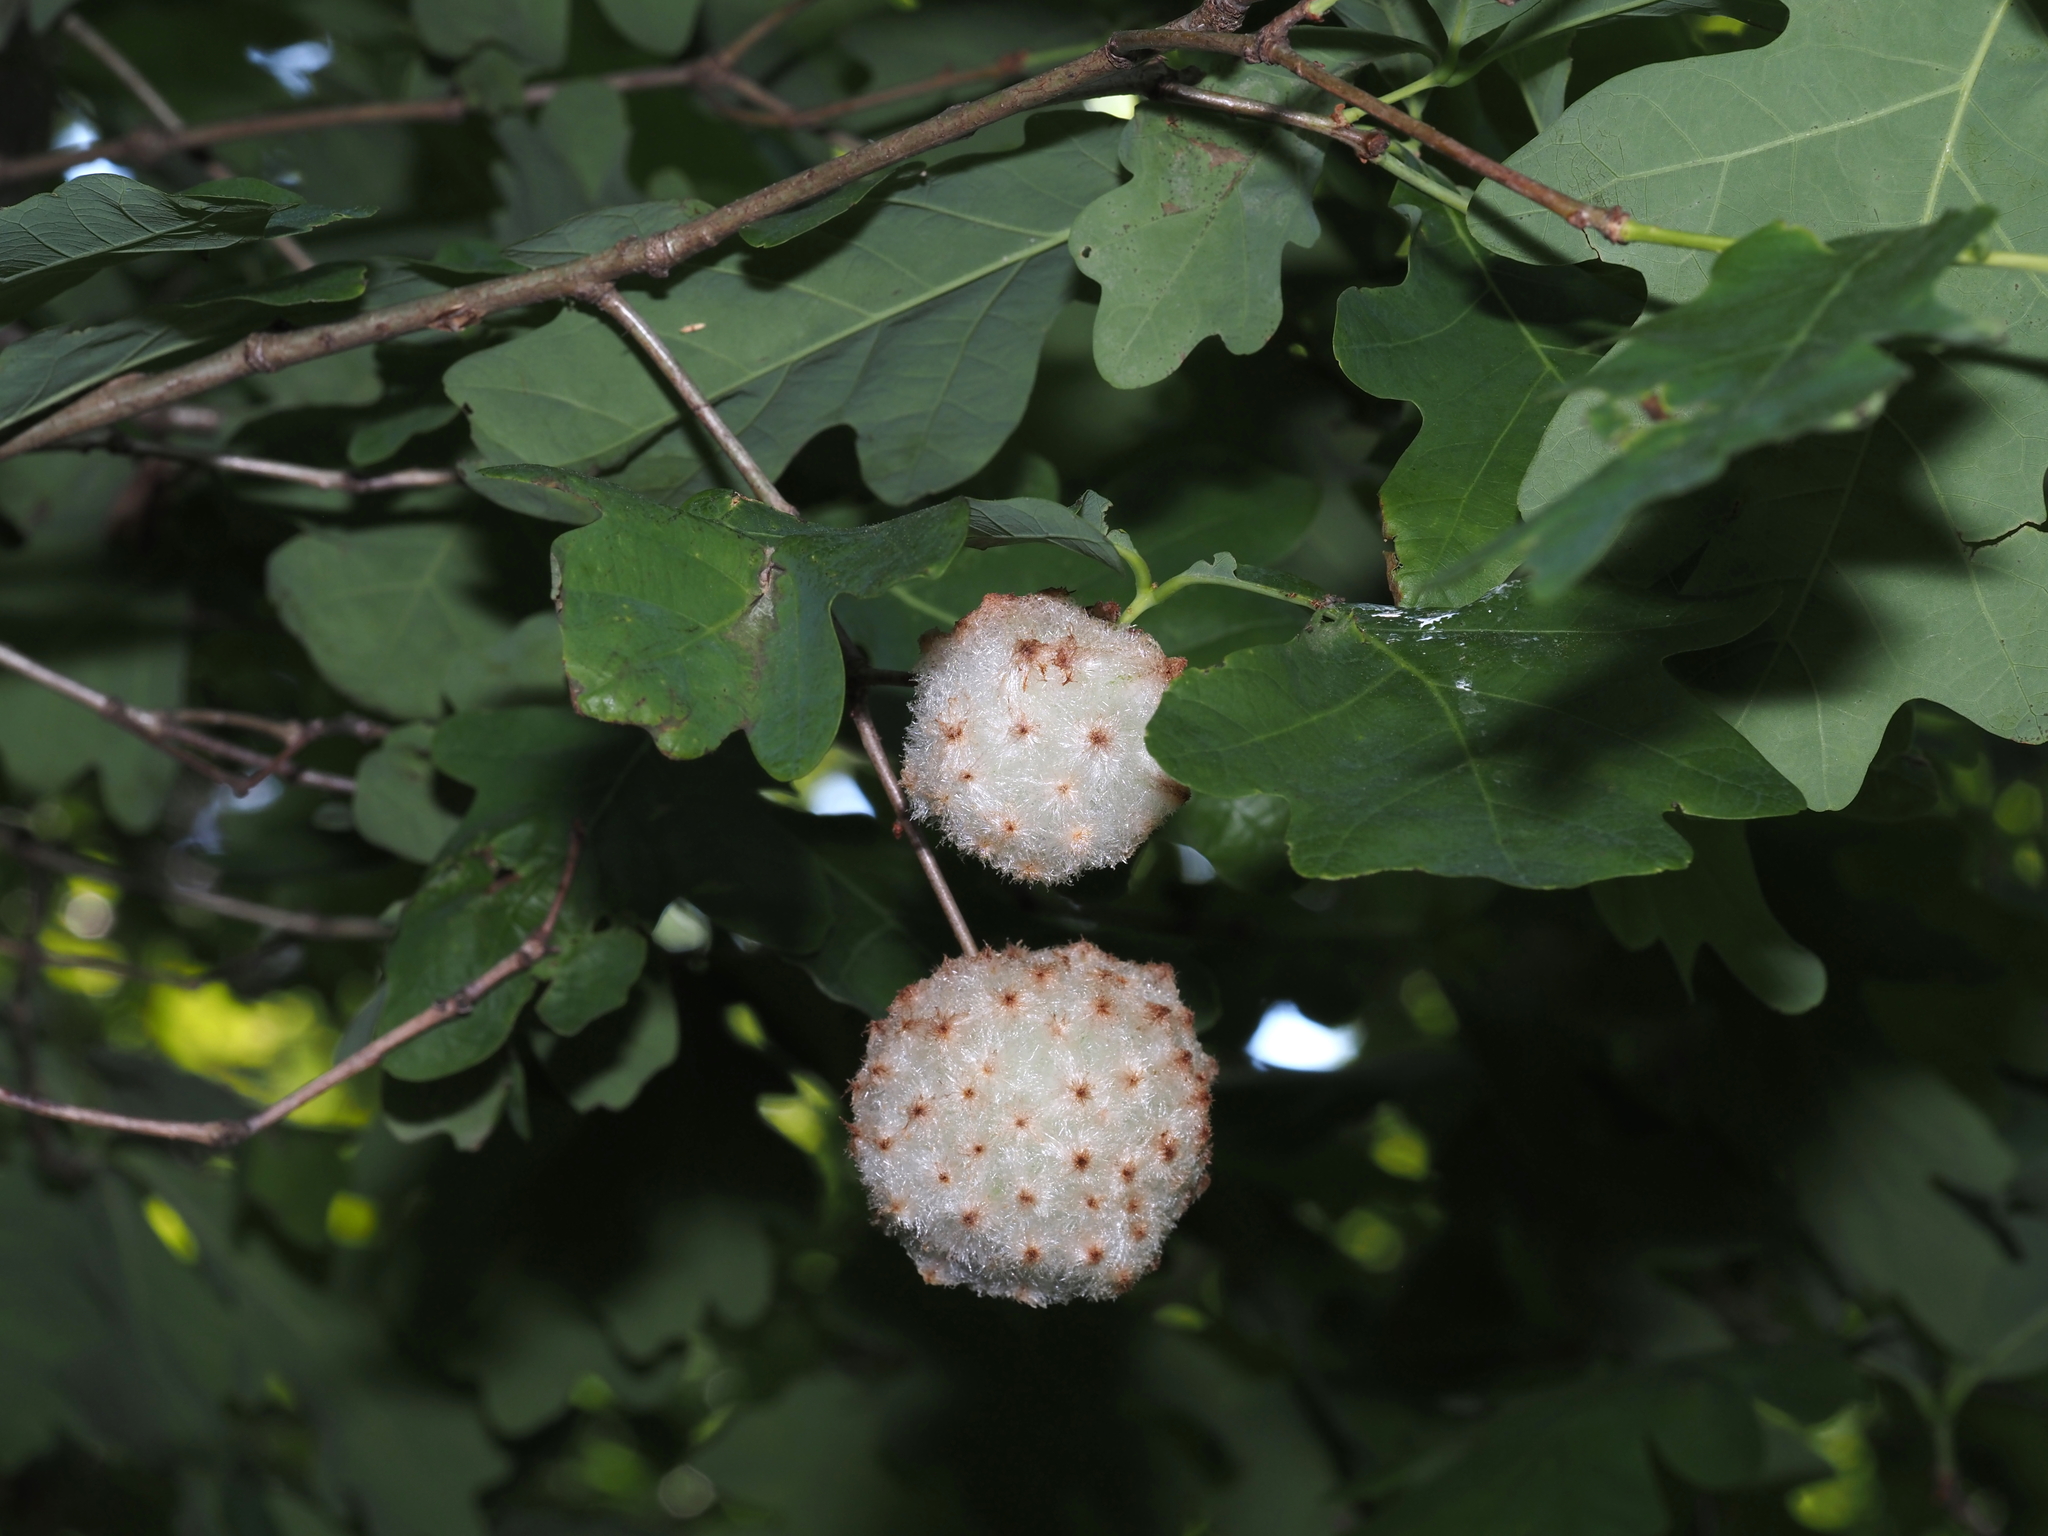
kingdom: Animalia
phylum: Arthropoda
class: Insecta
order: Hymenoptera
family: Cynipidae
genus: Callirhytis
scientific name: Callirhytis
